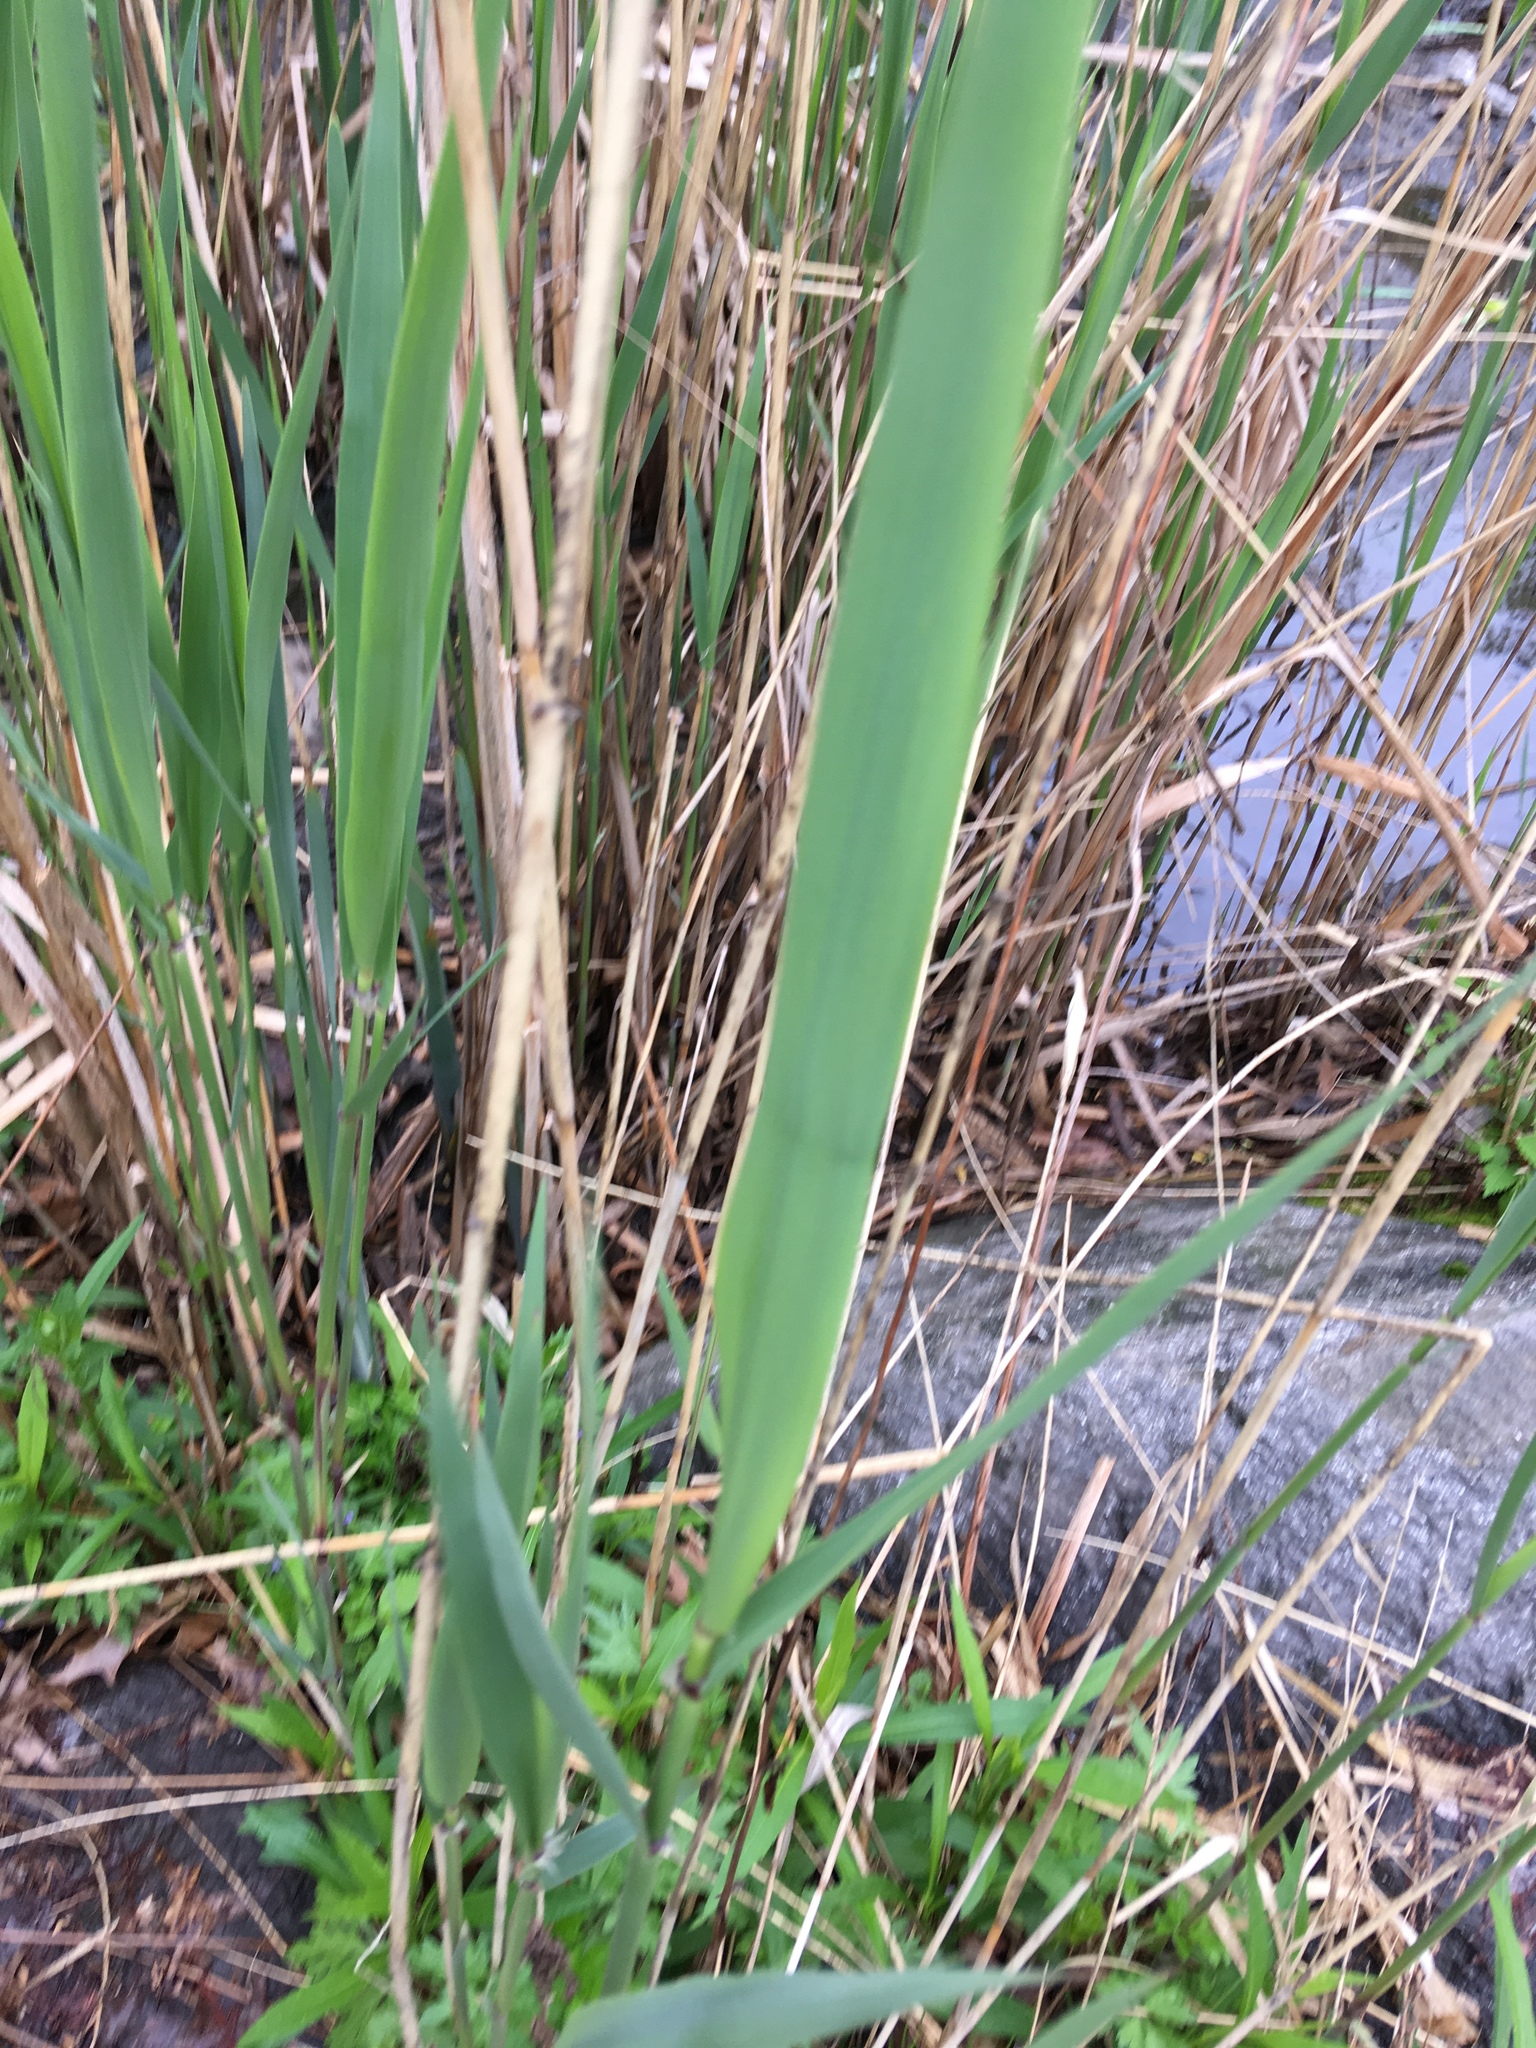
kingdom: Plantae
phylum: Tracheophyta
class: Liliopsida
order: Poales
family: Poaceae
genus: Phragmites
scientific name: Phragmites australis
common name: Common reed
